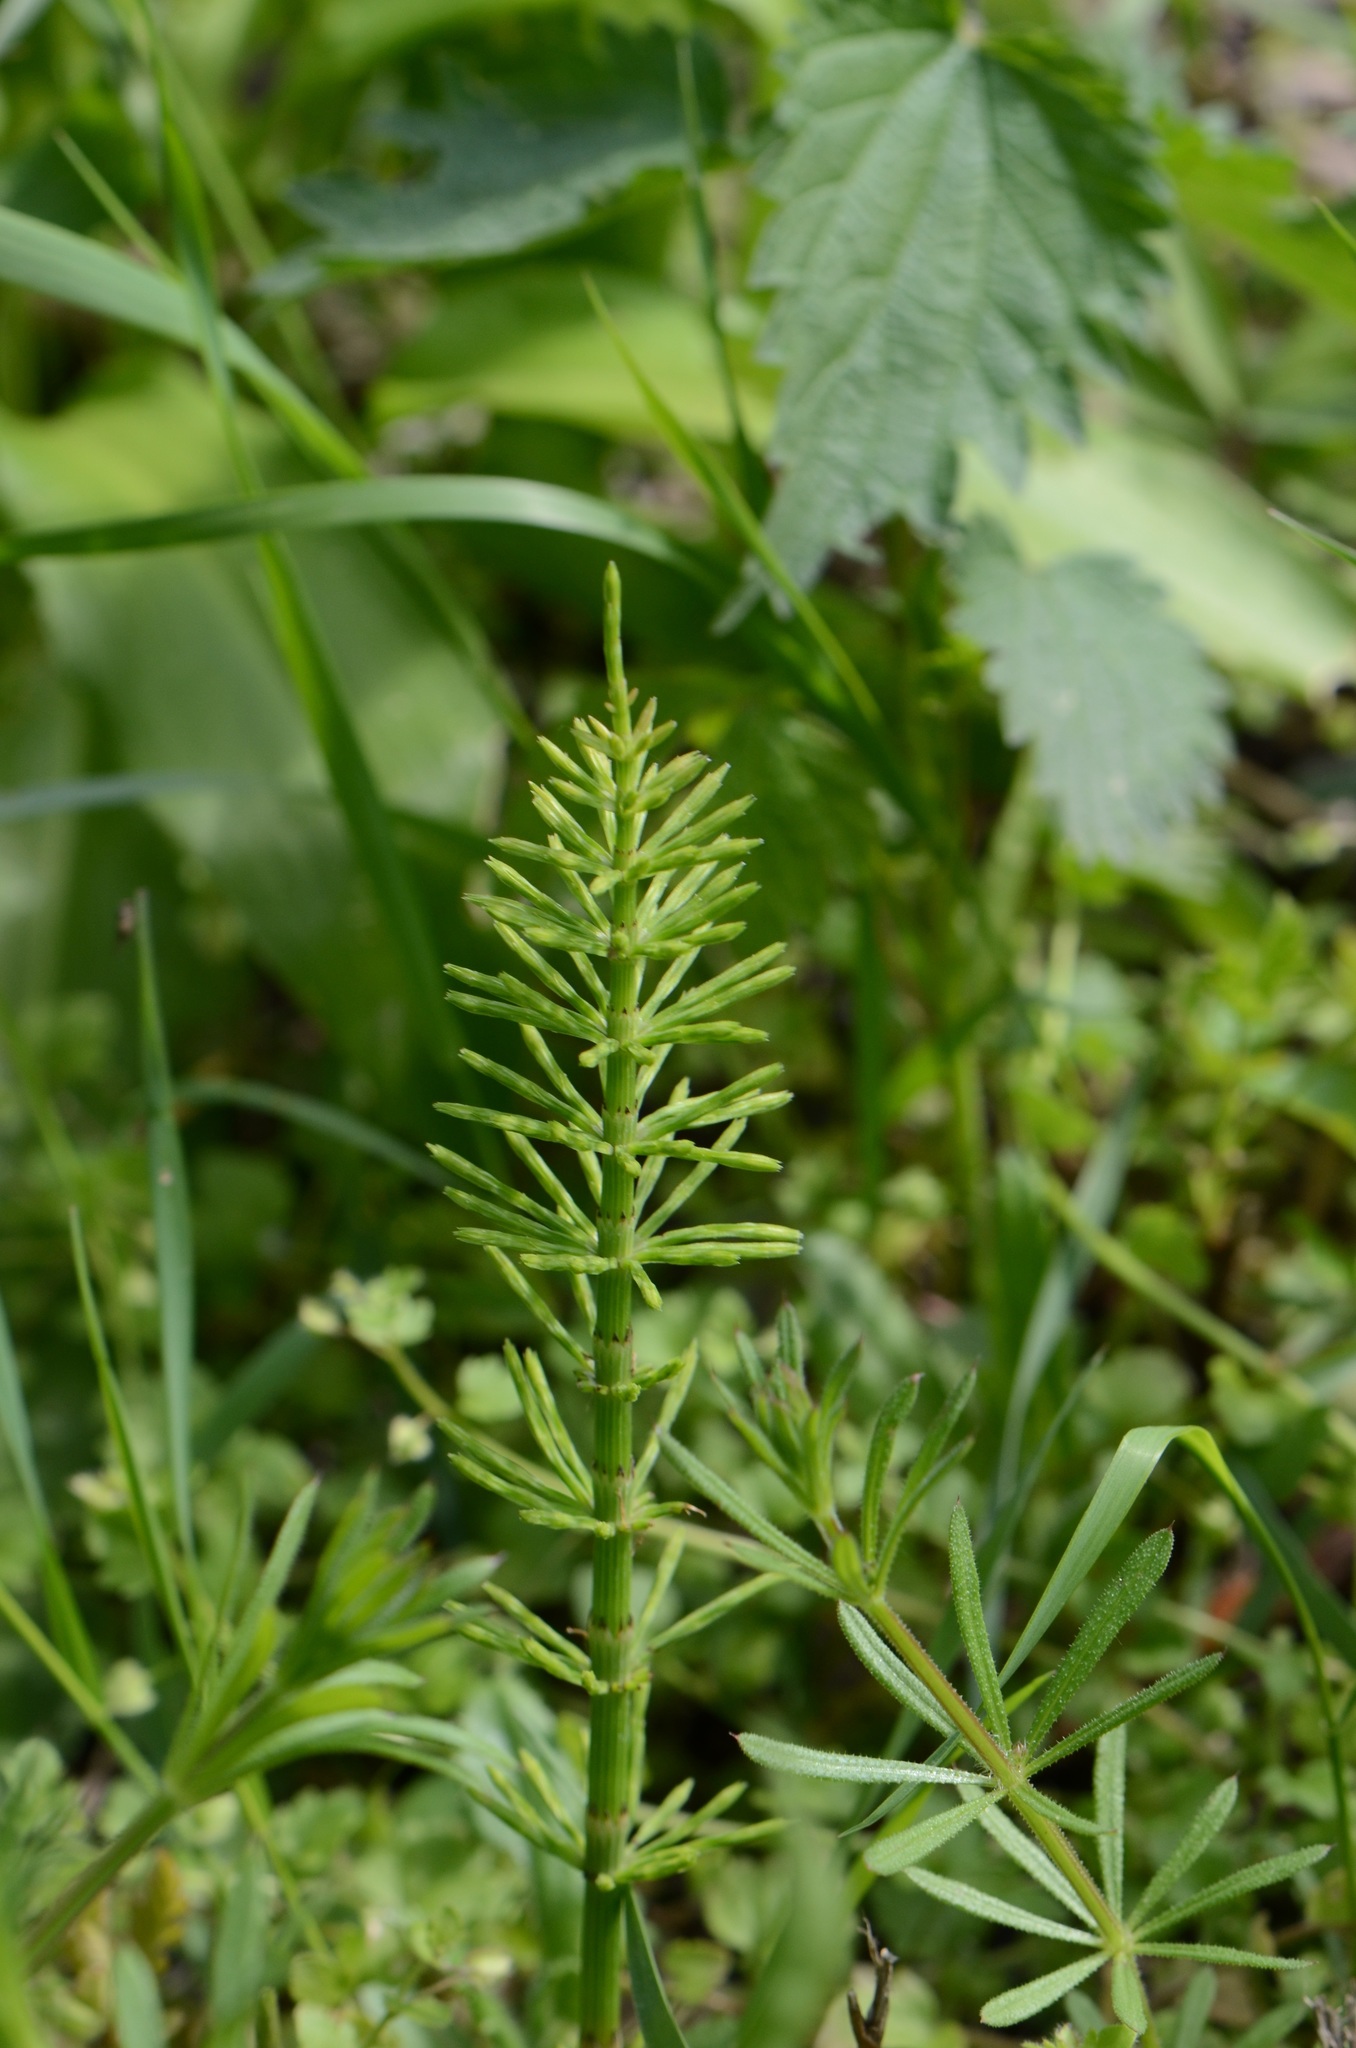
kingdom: Plantae
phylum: Tracheophyta
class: Polypodiopsida
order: Equisetales
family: Equisetaceae
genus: Equisetum
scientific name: Equisetum arvense
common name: Field horsetail
